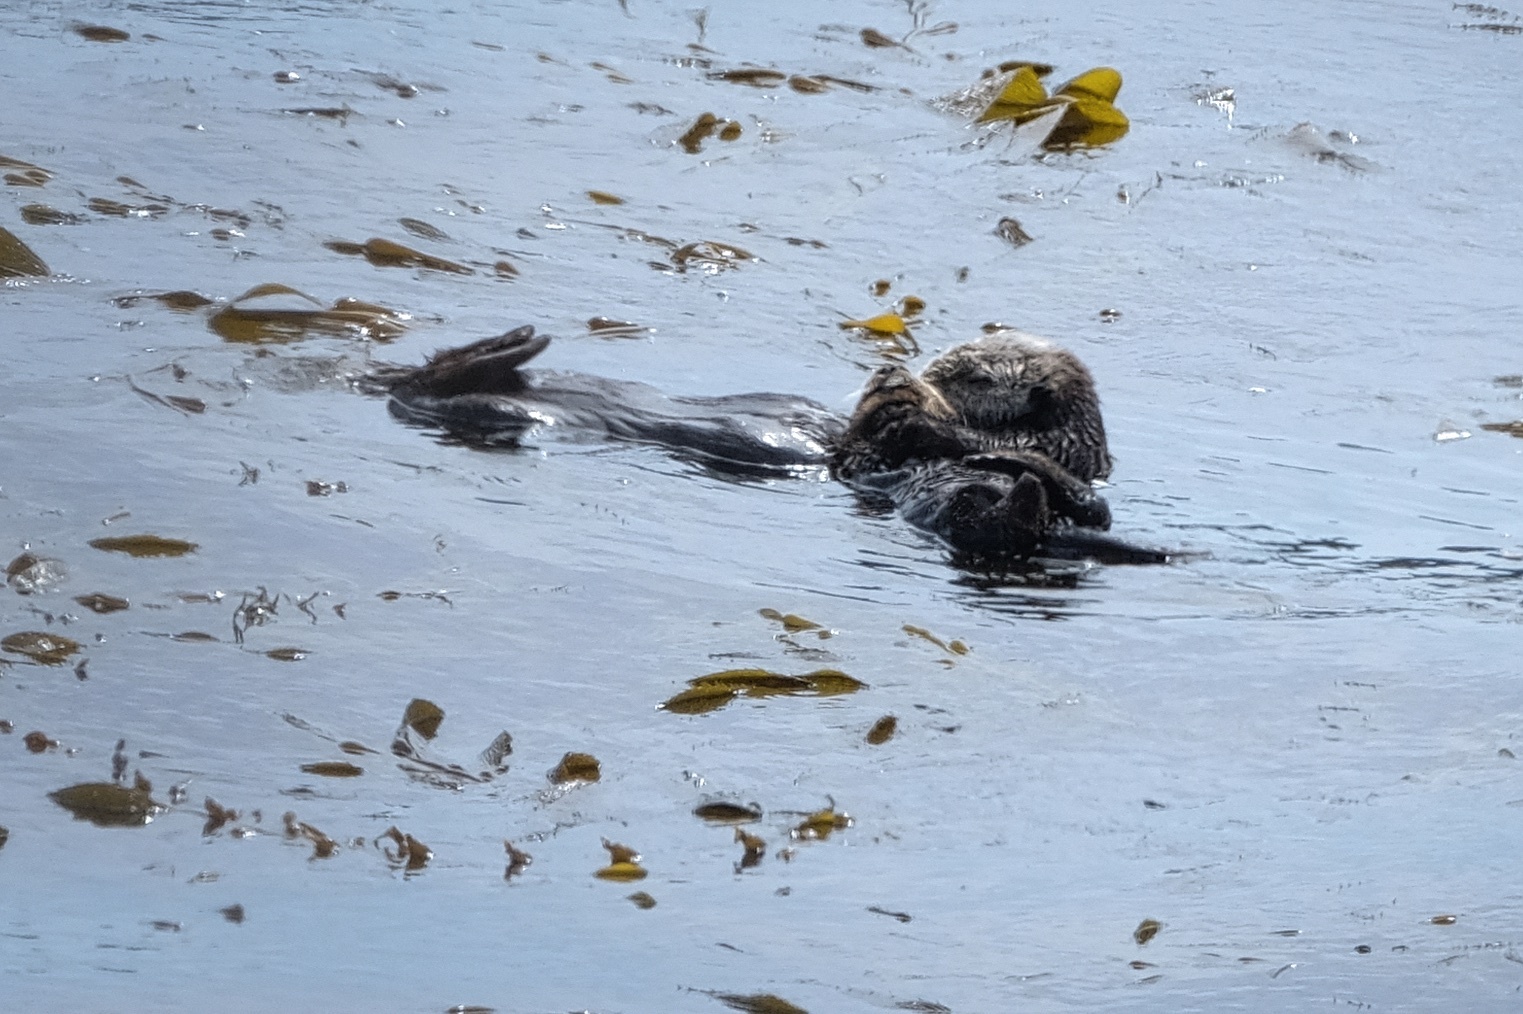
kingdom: Animalia
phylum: Chordata
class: Mammalia
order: Carnivora
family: Mustelidae
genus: Enhydra
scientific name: Enhydra lutris
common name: Sea otter
